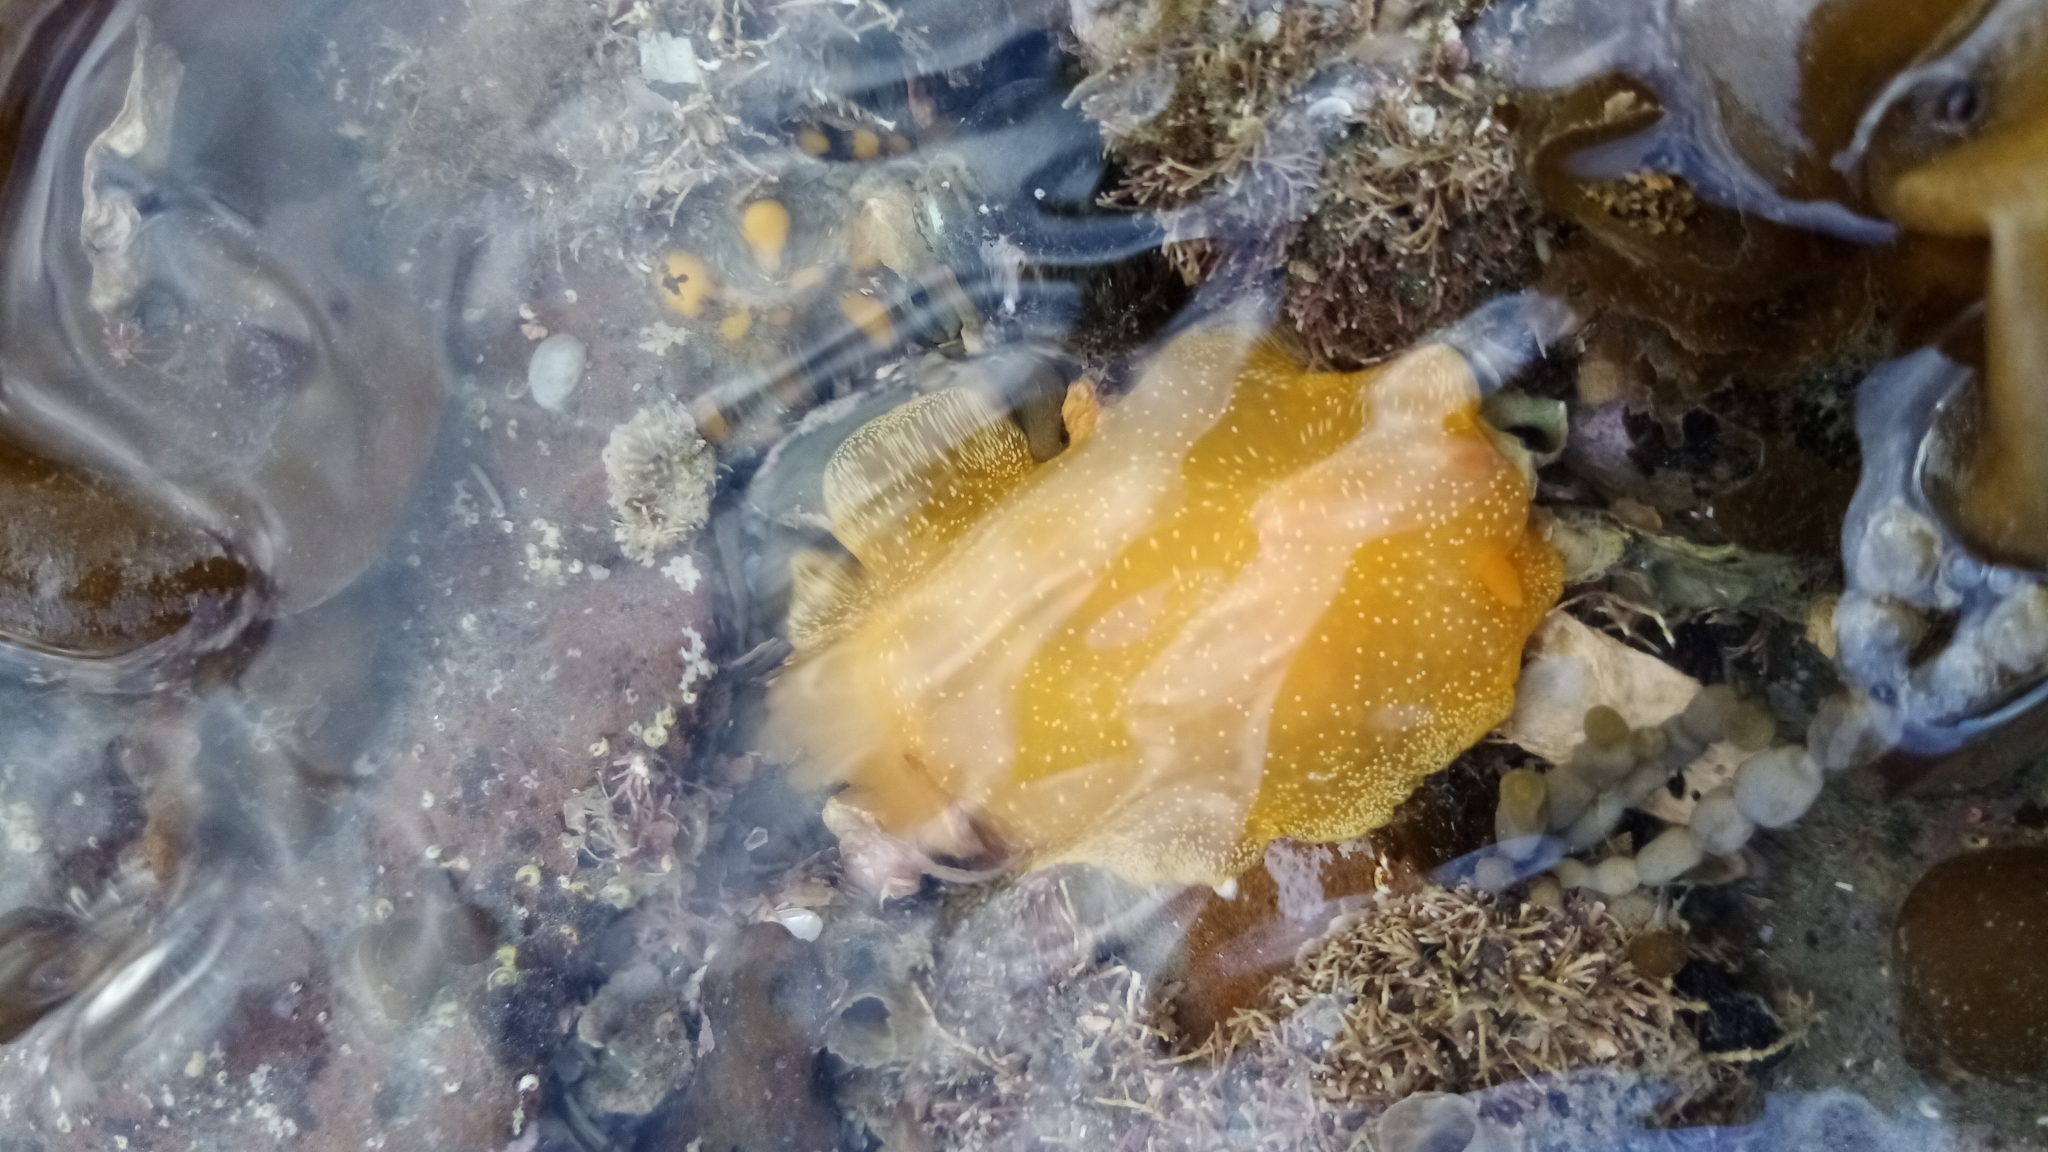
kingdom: Animalia
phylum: Mollusca
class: Gastropoda
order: Nudibranchia
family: Dendrodorididae
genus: Dendrodoris
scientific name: Dendrodoris citrina
